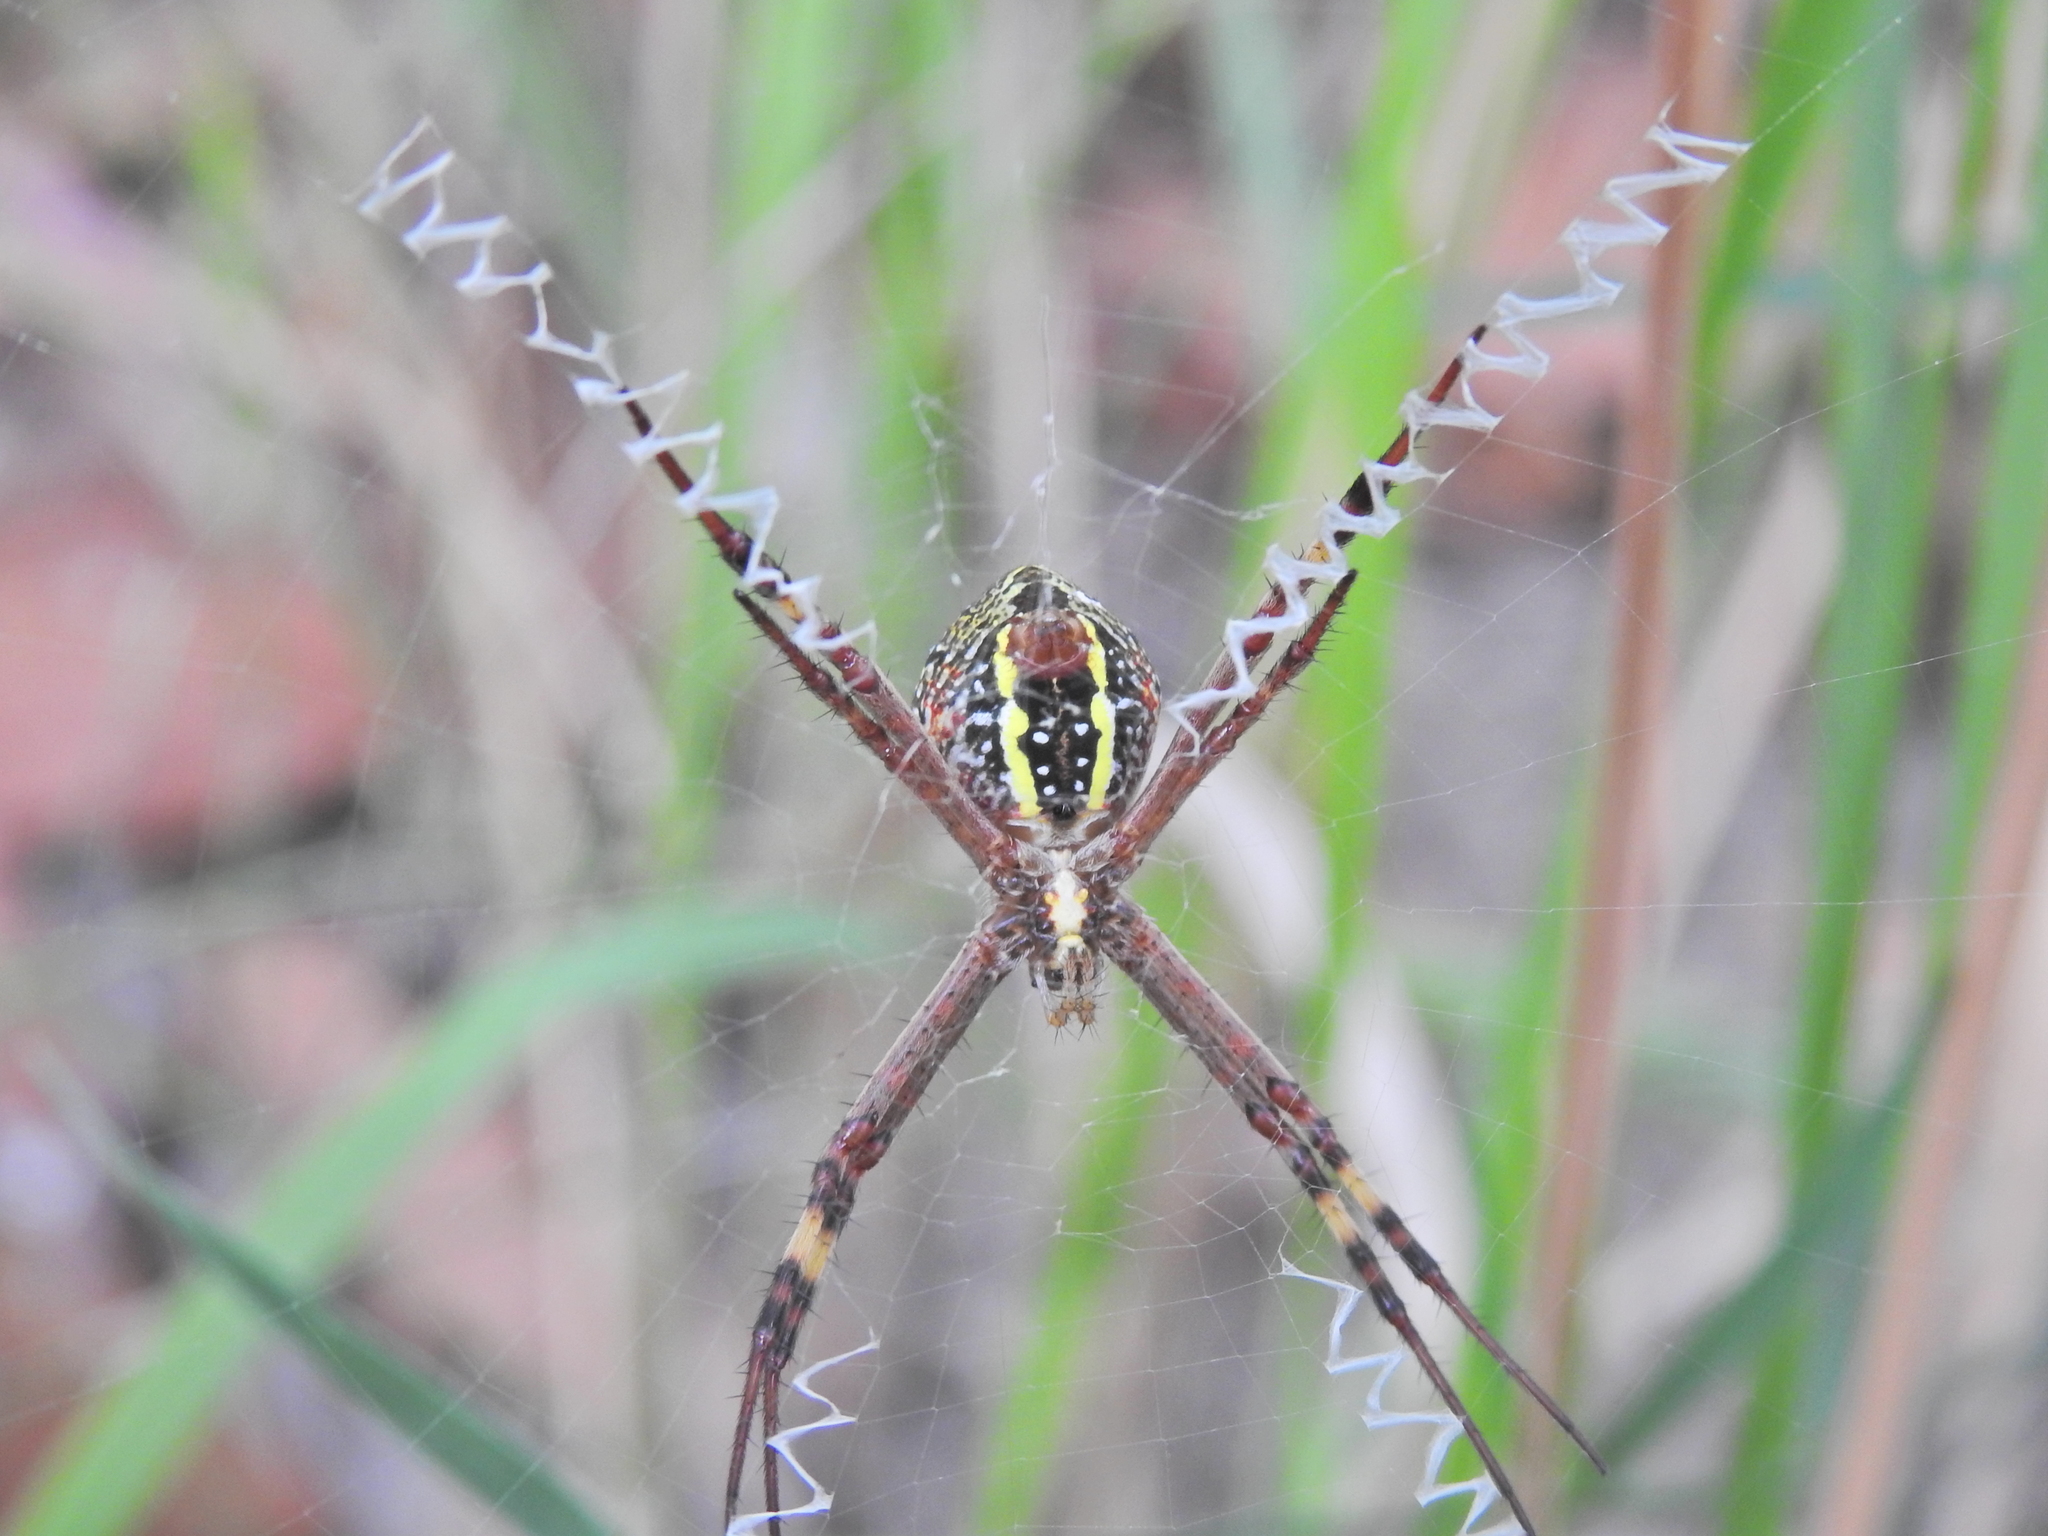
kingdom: Animalia
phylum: Arthropoda
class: Arachnida
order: Araneae
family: Araneidae
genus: Argiope
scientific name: Argiope keyserlingi
